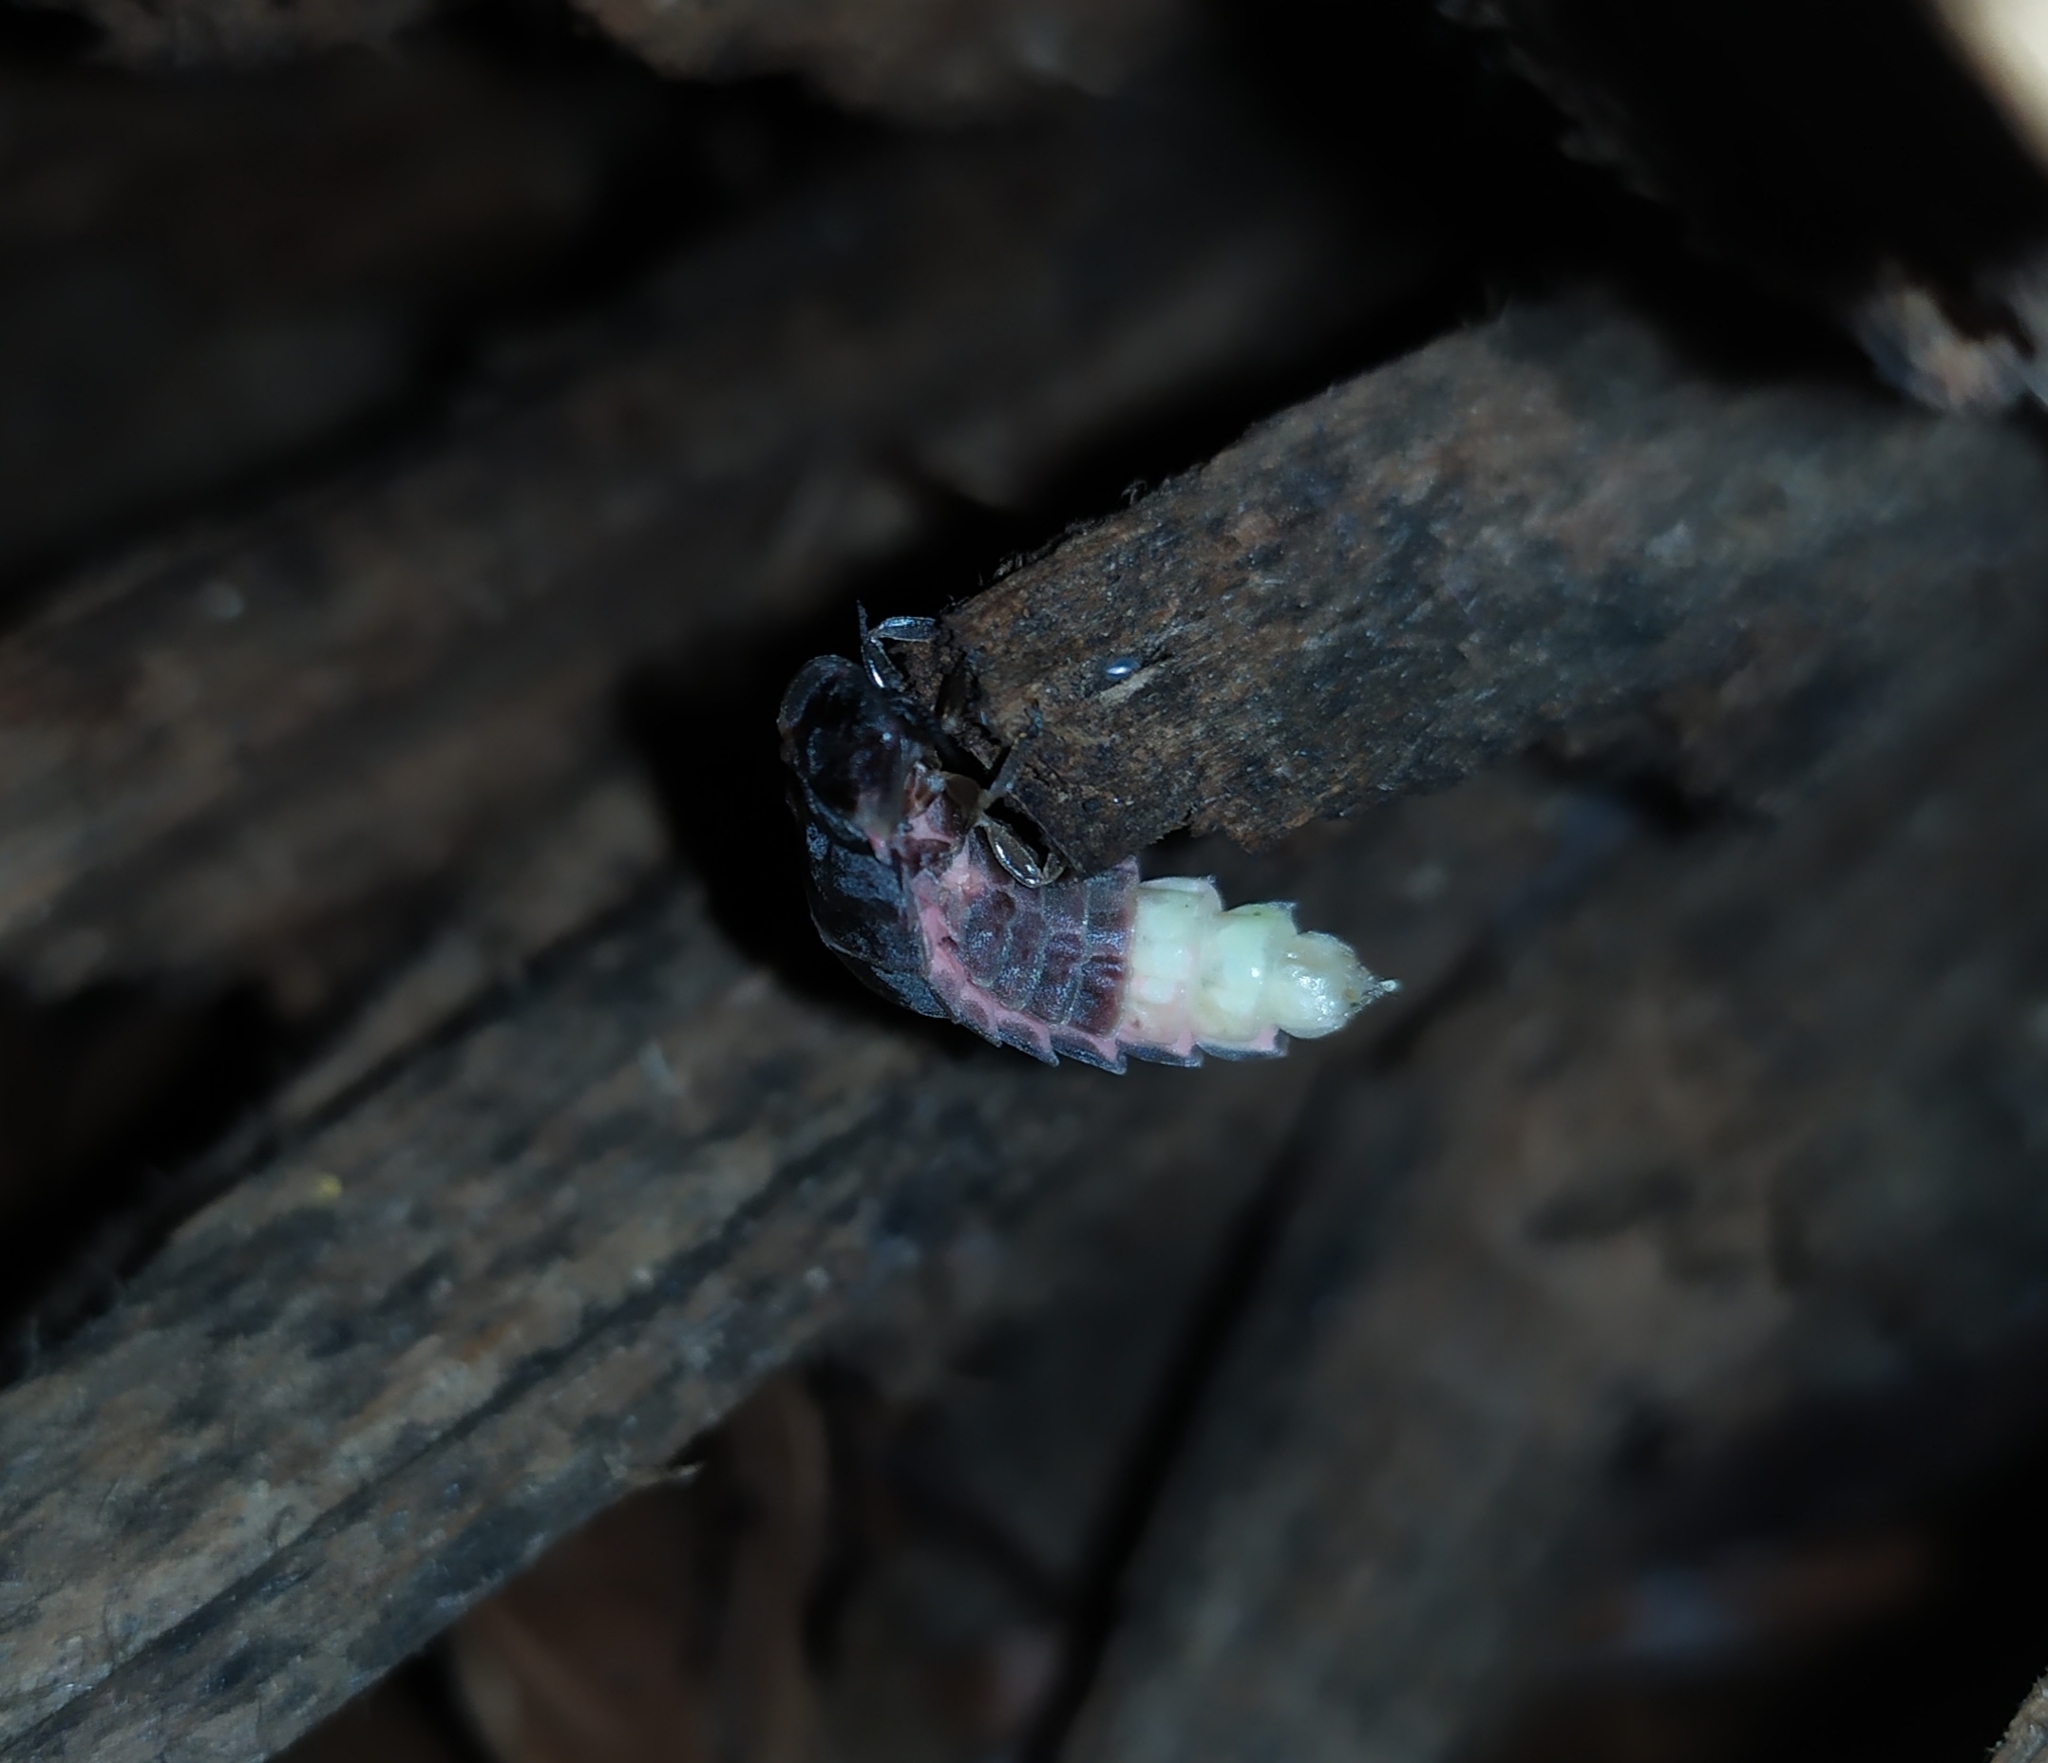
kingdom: Animalia
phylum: Arthropoda
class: Insecta
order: Coleoptera
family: Lampyridae
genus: Lampyris
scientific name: Lampyris noctiluca
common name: Glow-worm
